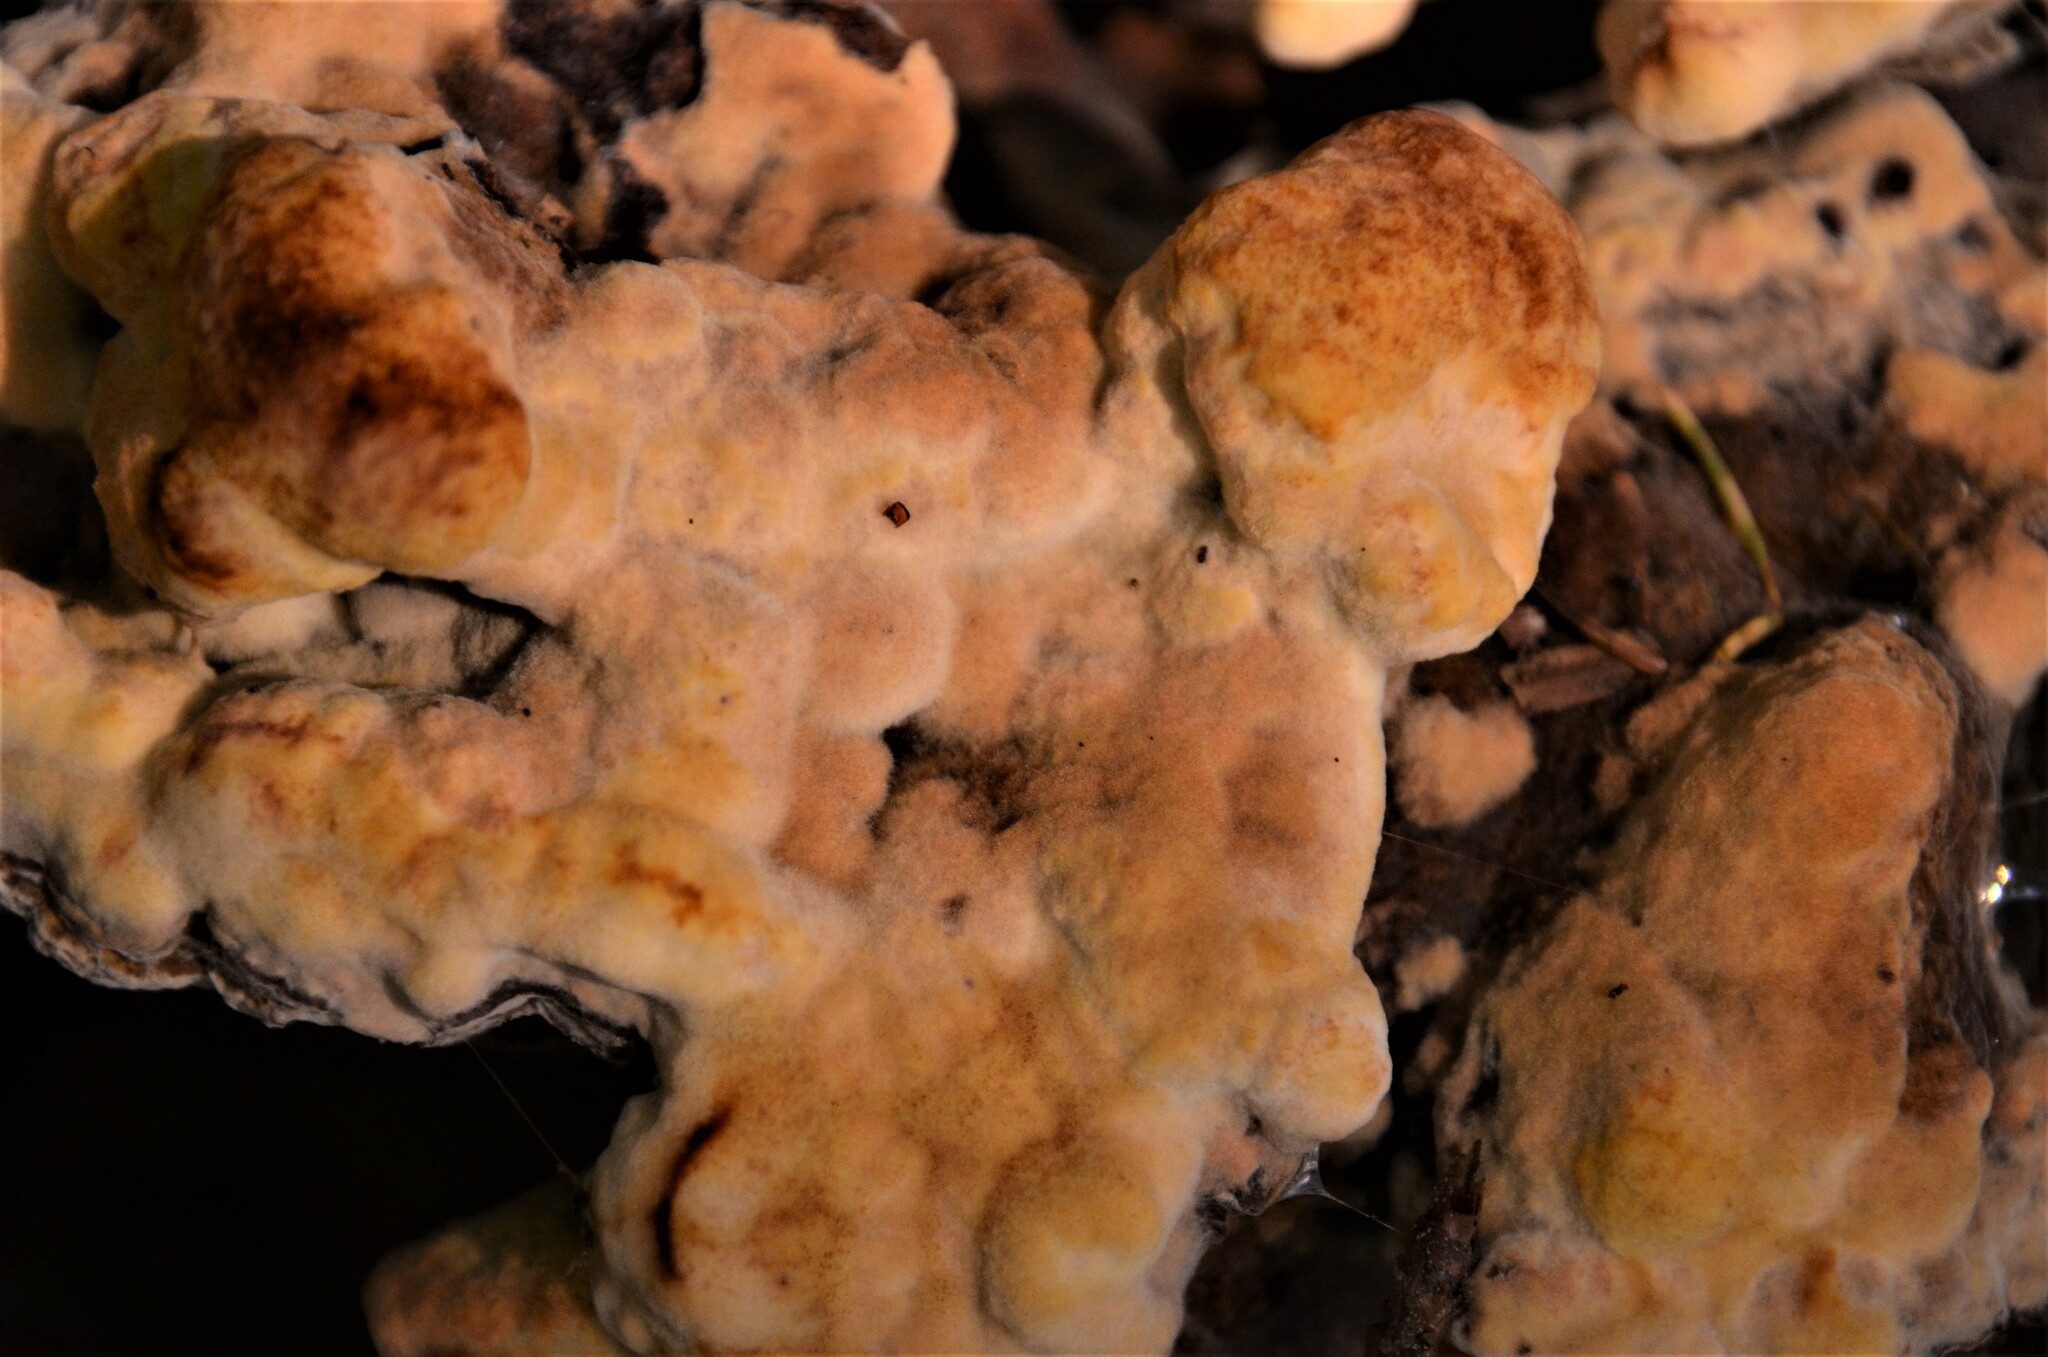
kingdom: Fungi
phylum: Basidiomycota
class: Agaricomycetes
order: Polyporales
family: Laetiporaceae
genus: Phaeolus
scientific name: Phaeolus schweinitzii
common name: Dyer's mazegill
